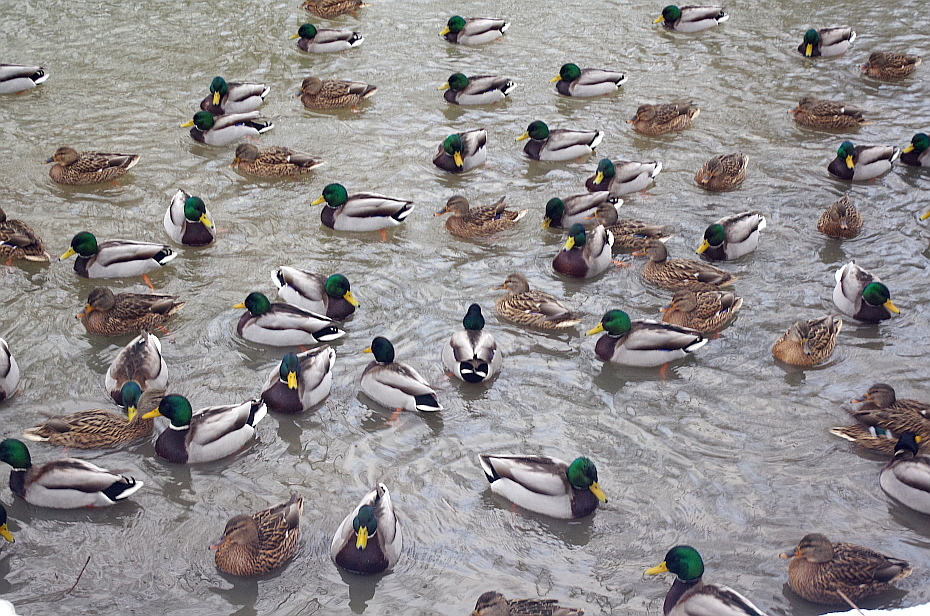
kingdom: Animalia
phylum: Chordata
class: Aves
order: Anseriformes
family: Anatidae
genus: Anas
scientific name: Anas platyrhynchos
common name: Mallard
